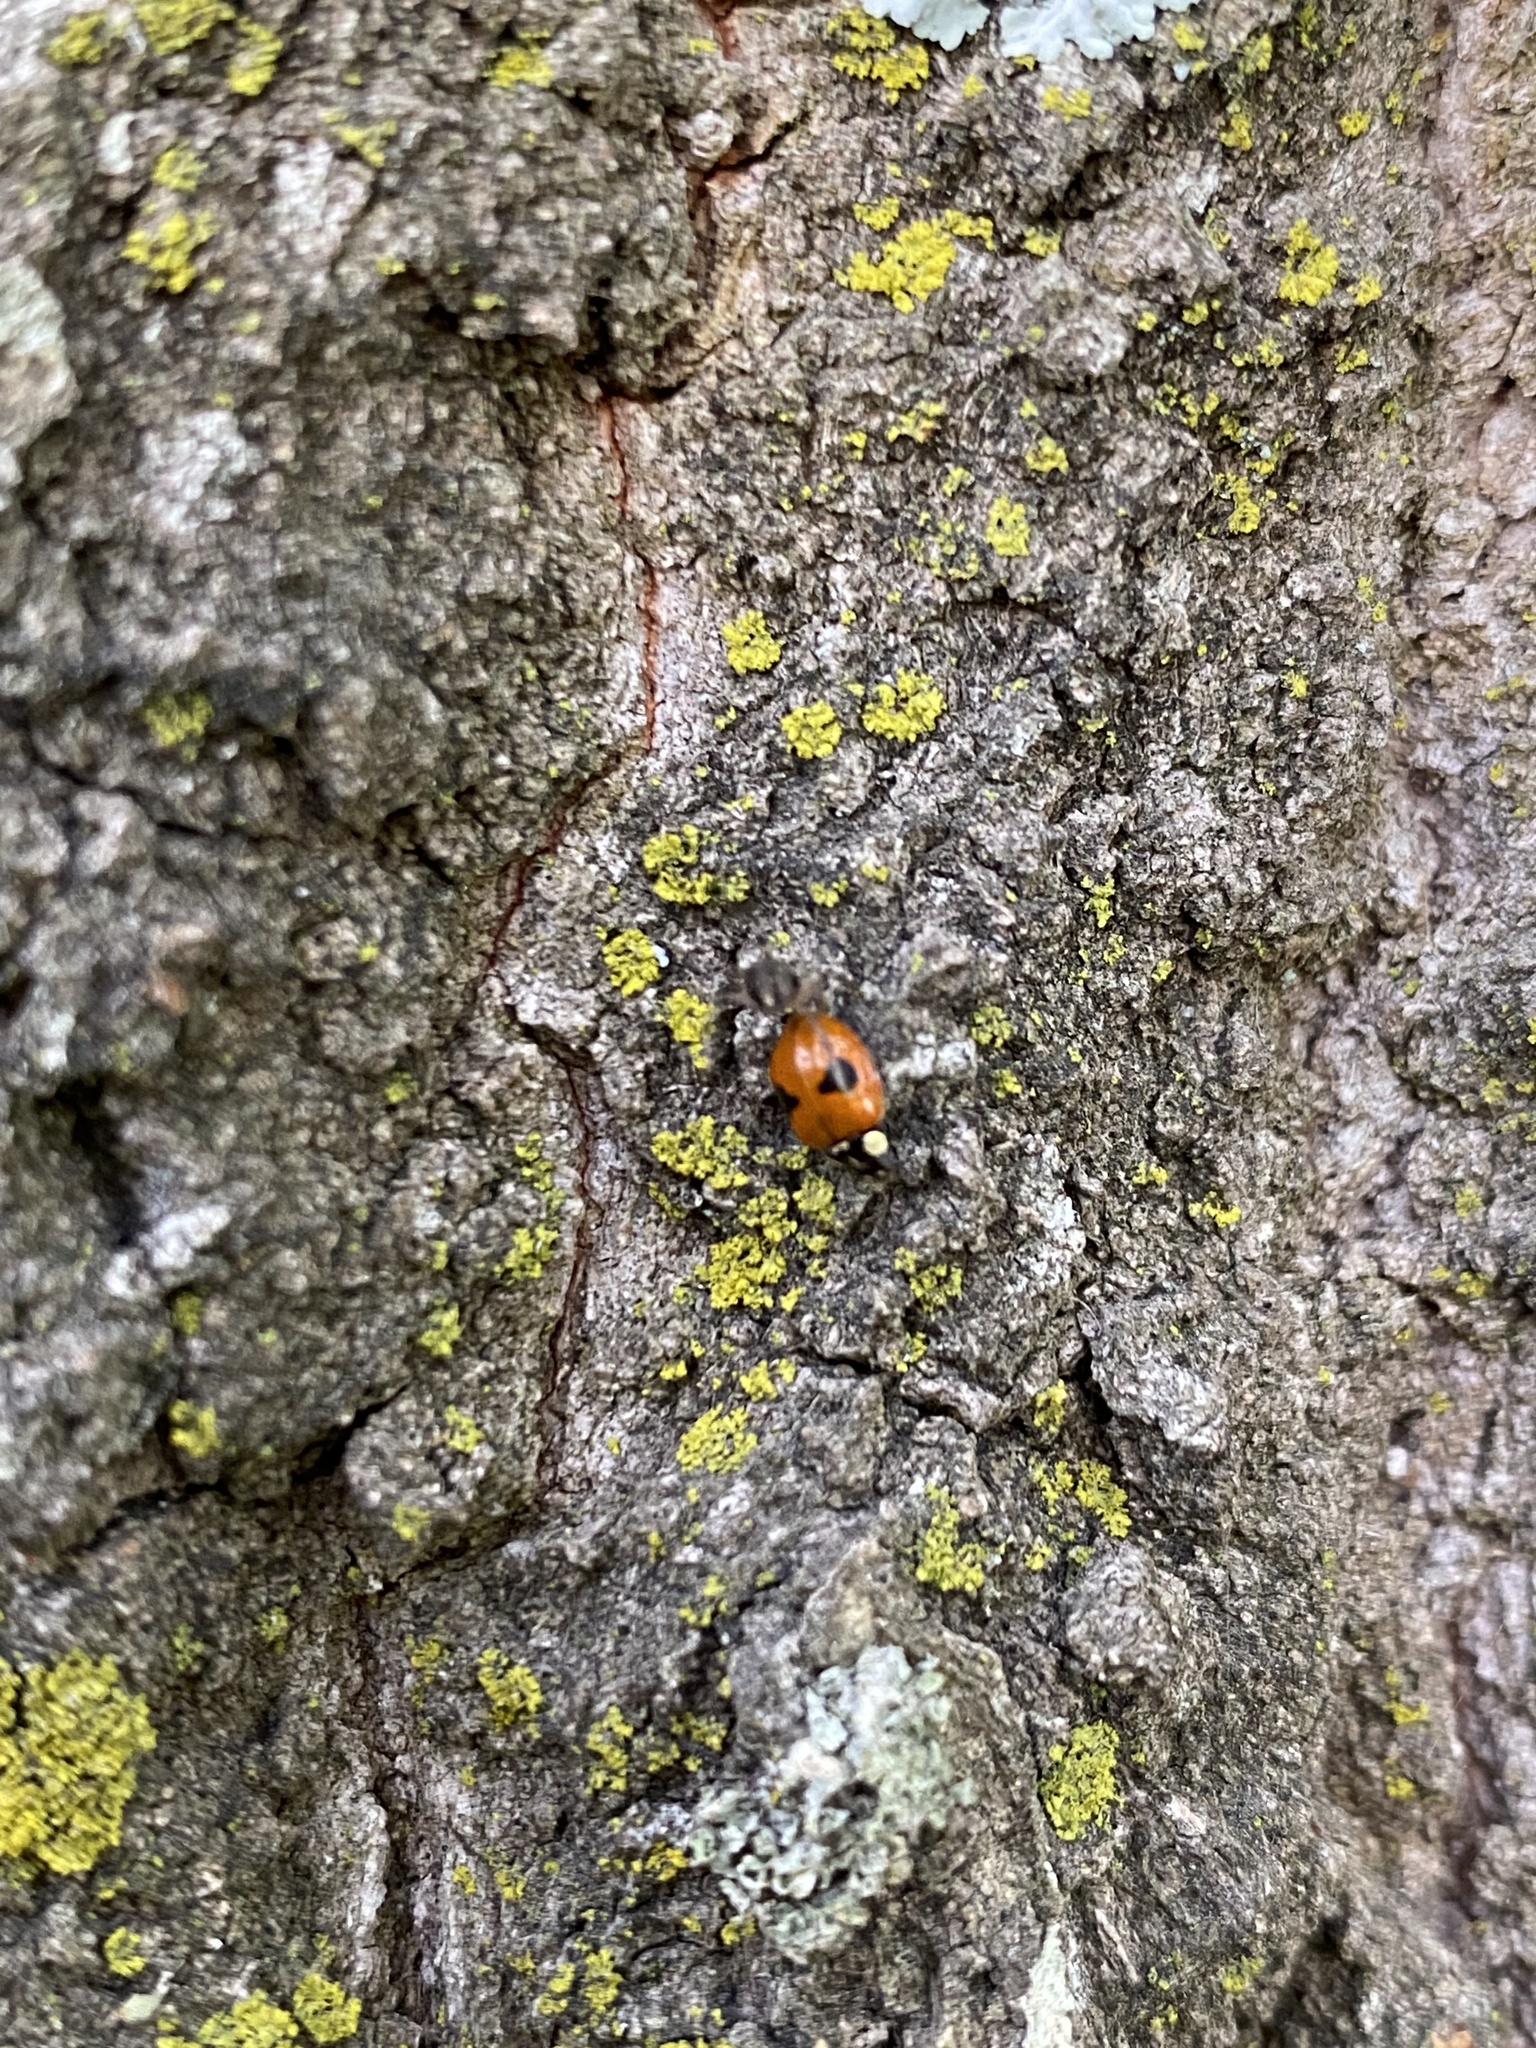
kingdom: Animalia
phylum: Arthropoda
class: Insecta
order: Coleoptera
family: Coccinellidae
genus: Adalia
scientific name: Adalia bipunctata
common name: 2-spot ladybird
